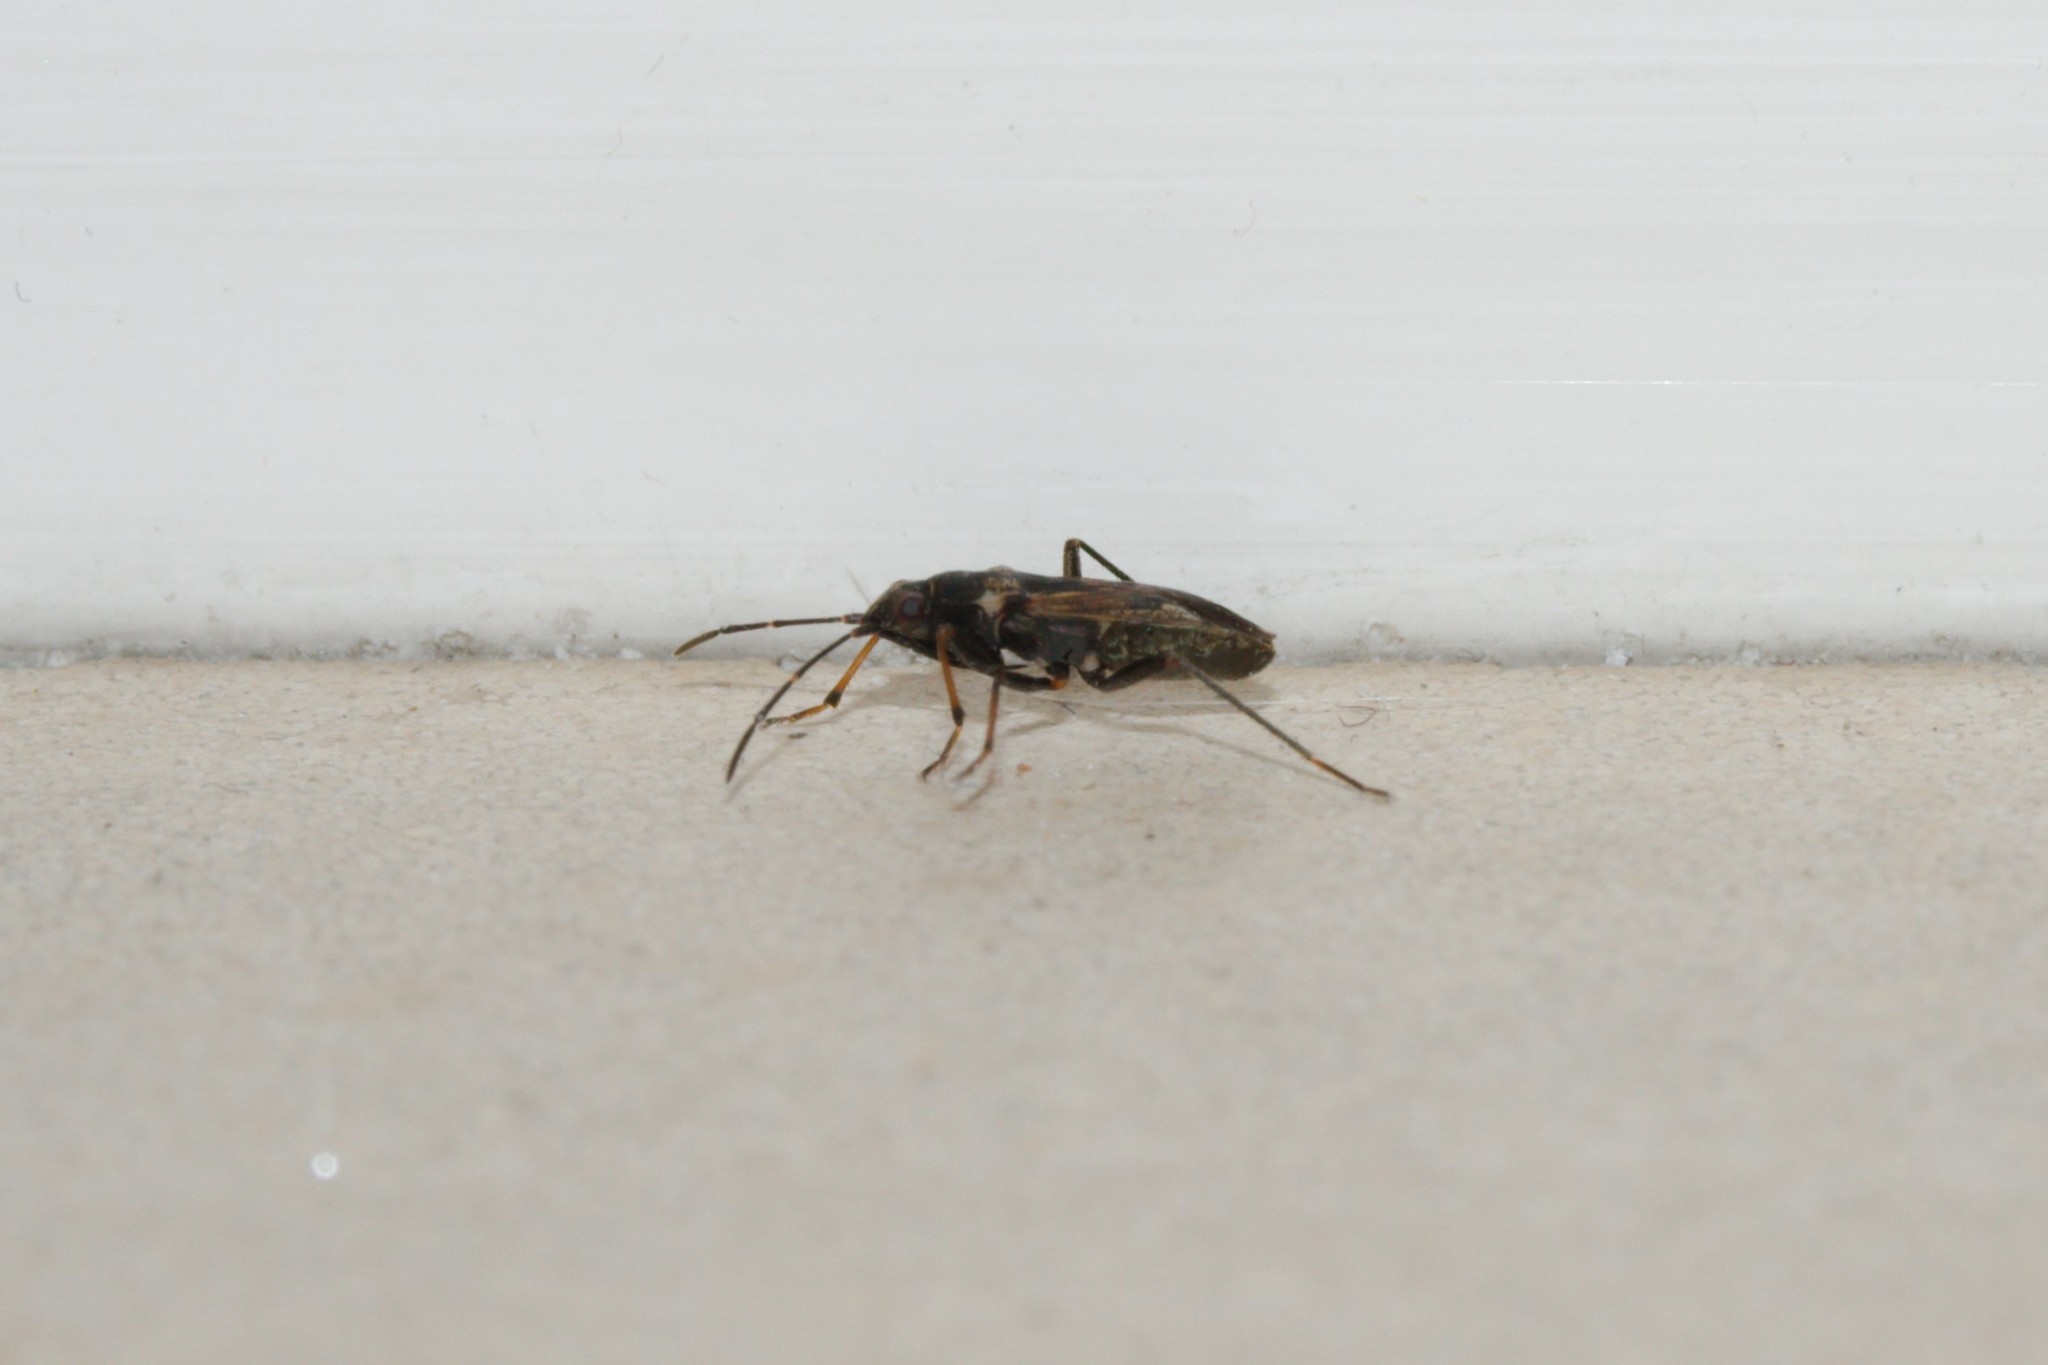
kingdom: Animalia
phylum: Arthropoda
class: Insecta
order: Hemiptera
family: Rhyparochromidae
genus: Rhyparochromus
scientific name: Rhyparochromus vulgaris
